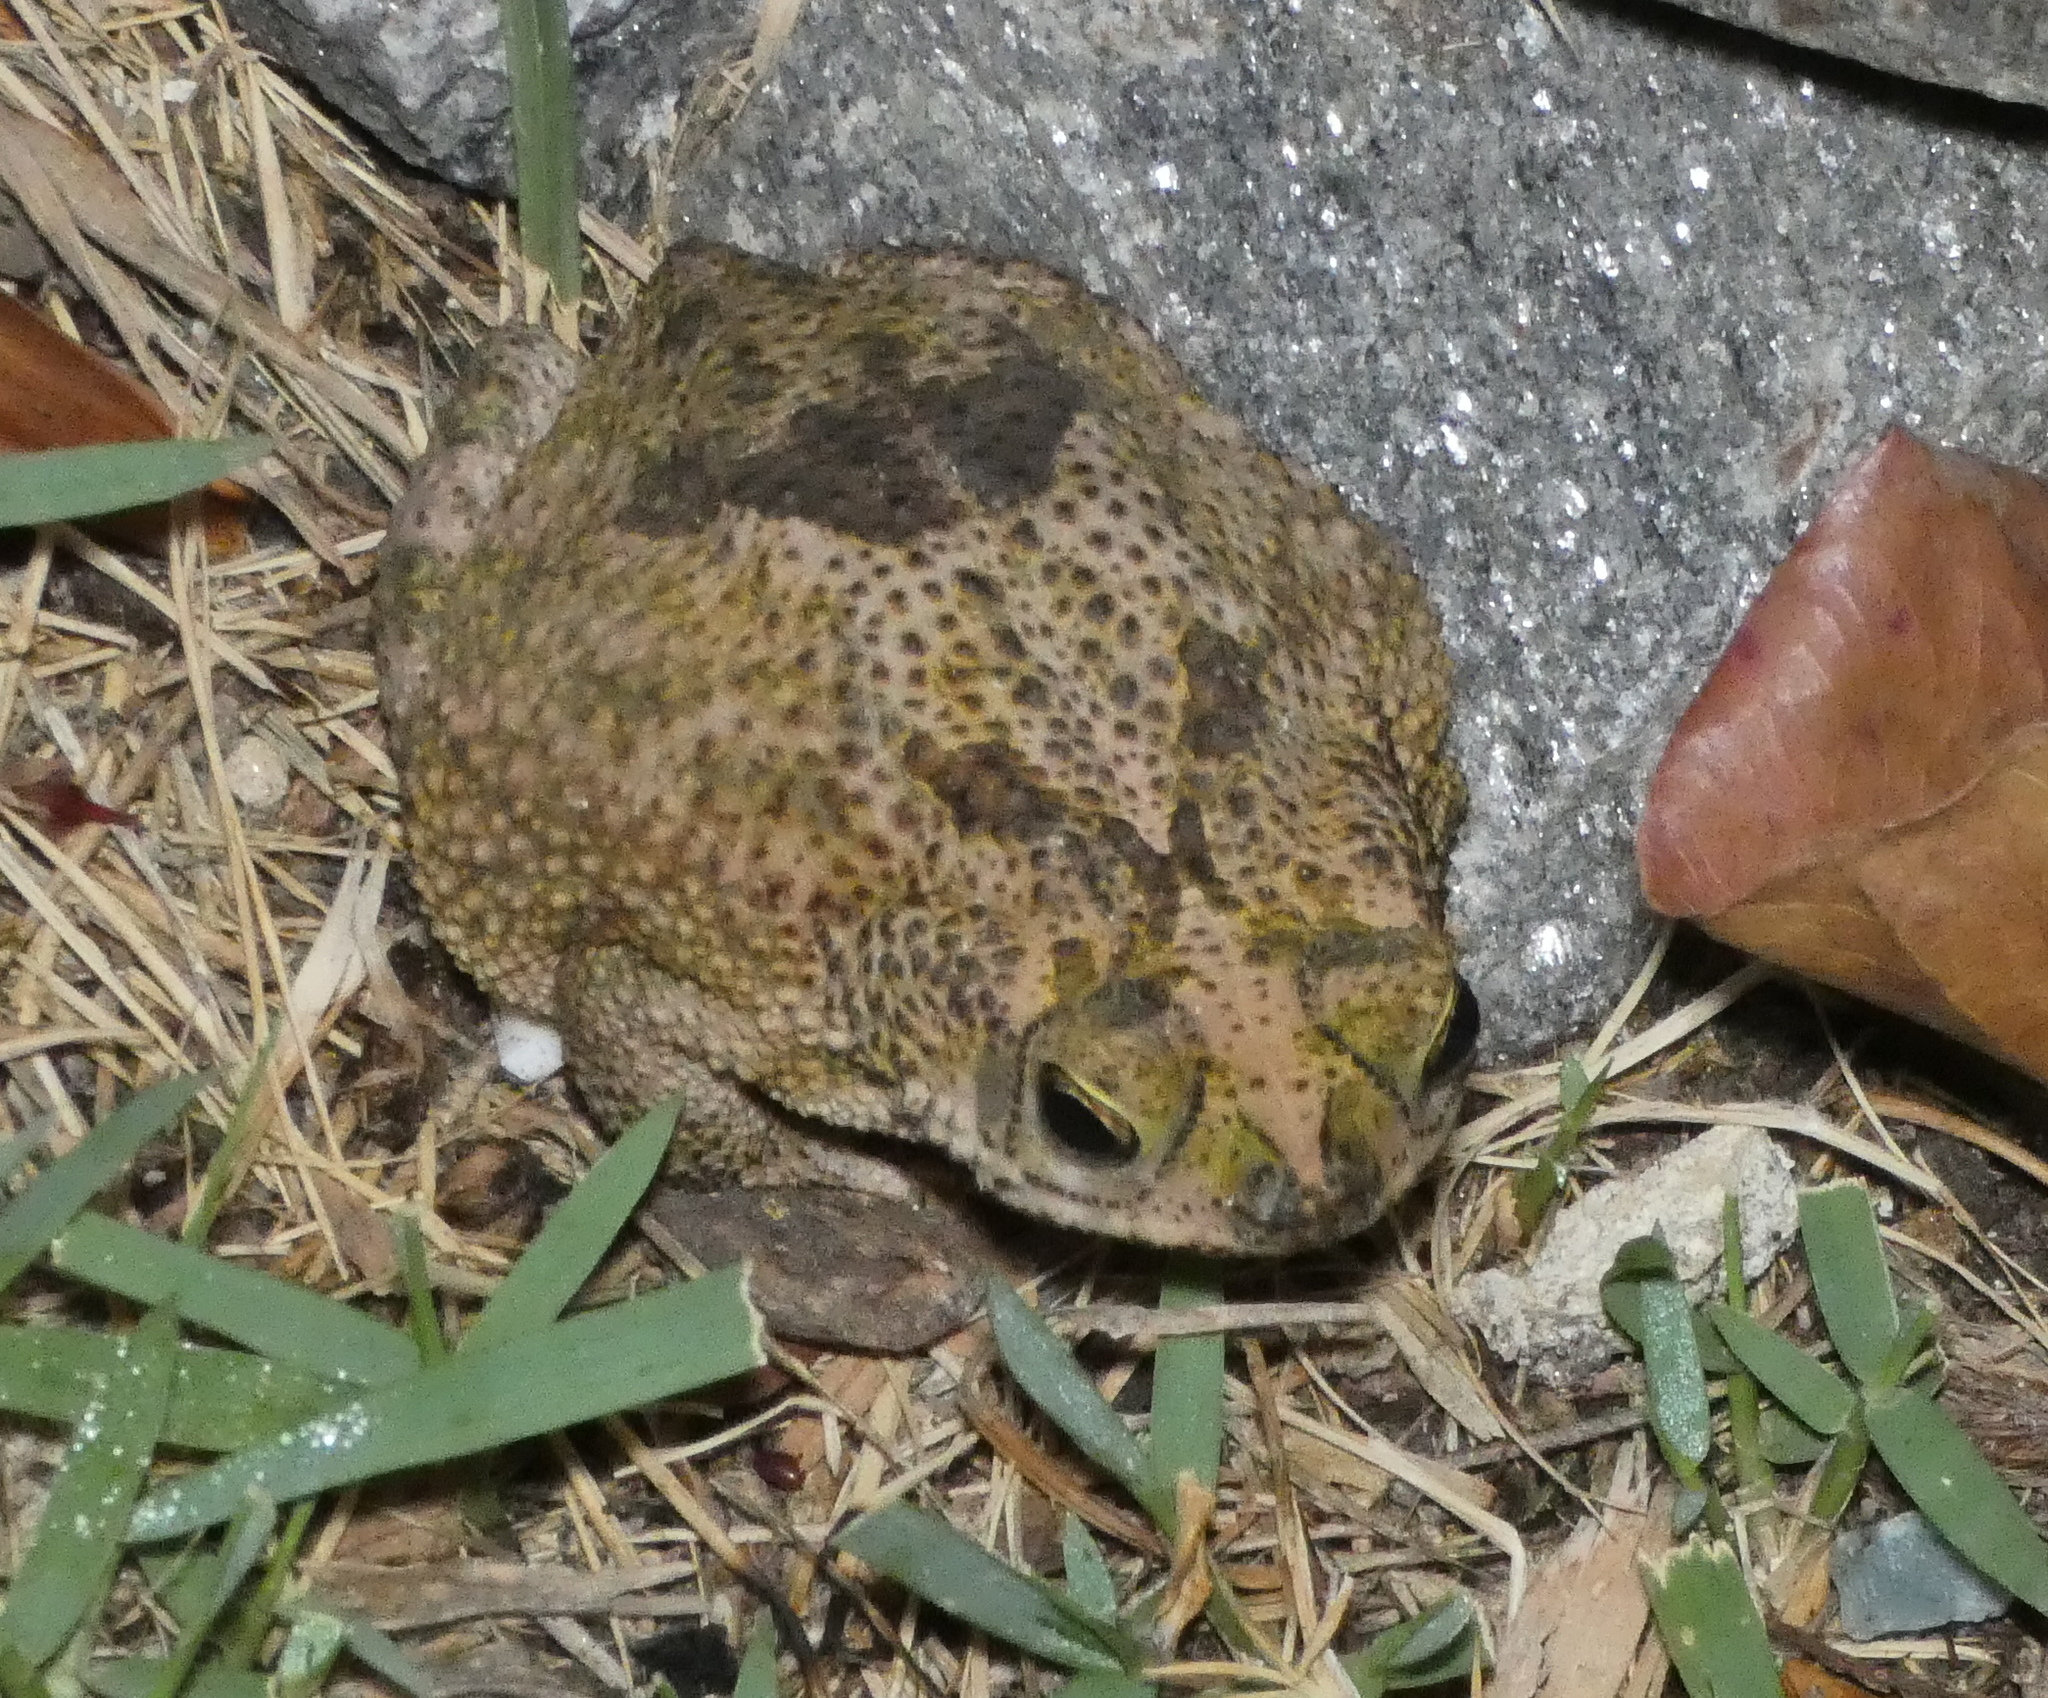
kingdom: Animalia
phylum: Chordata
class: Amphibia
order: Anura
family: Bufonidae
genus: Rhinella
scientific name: Rhinella granulosa
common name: Common lesser toad
